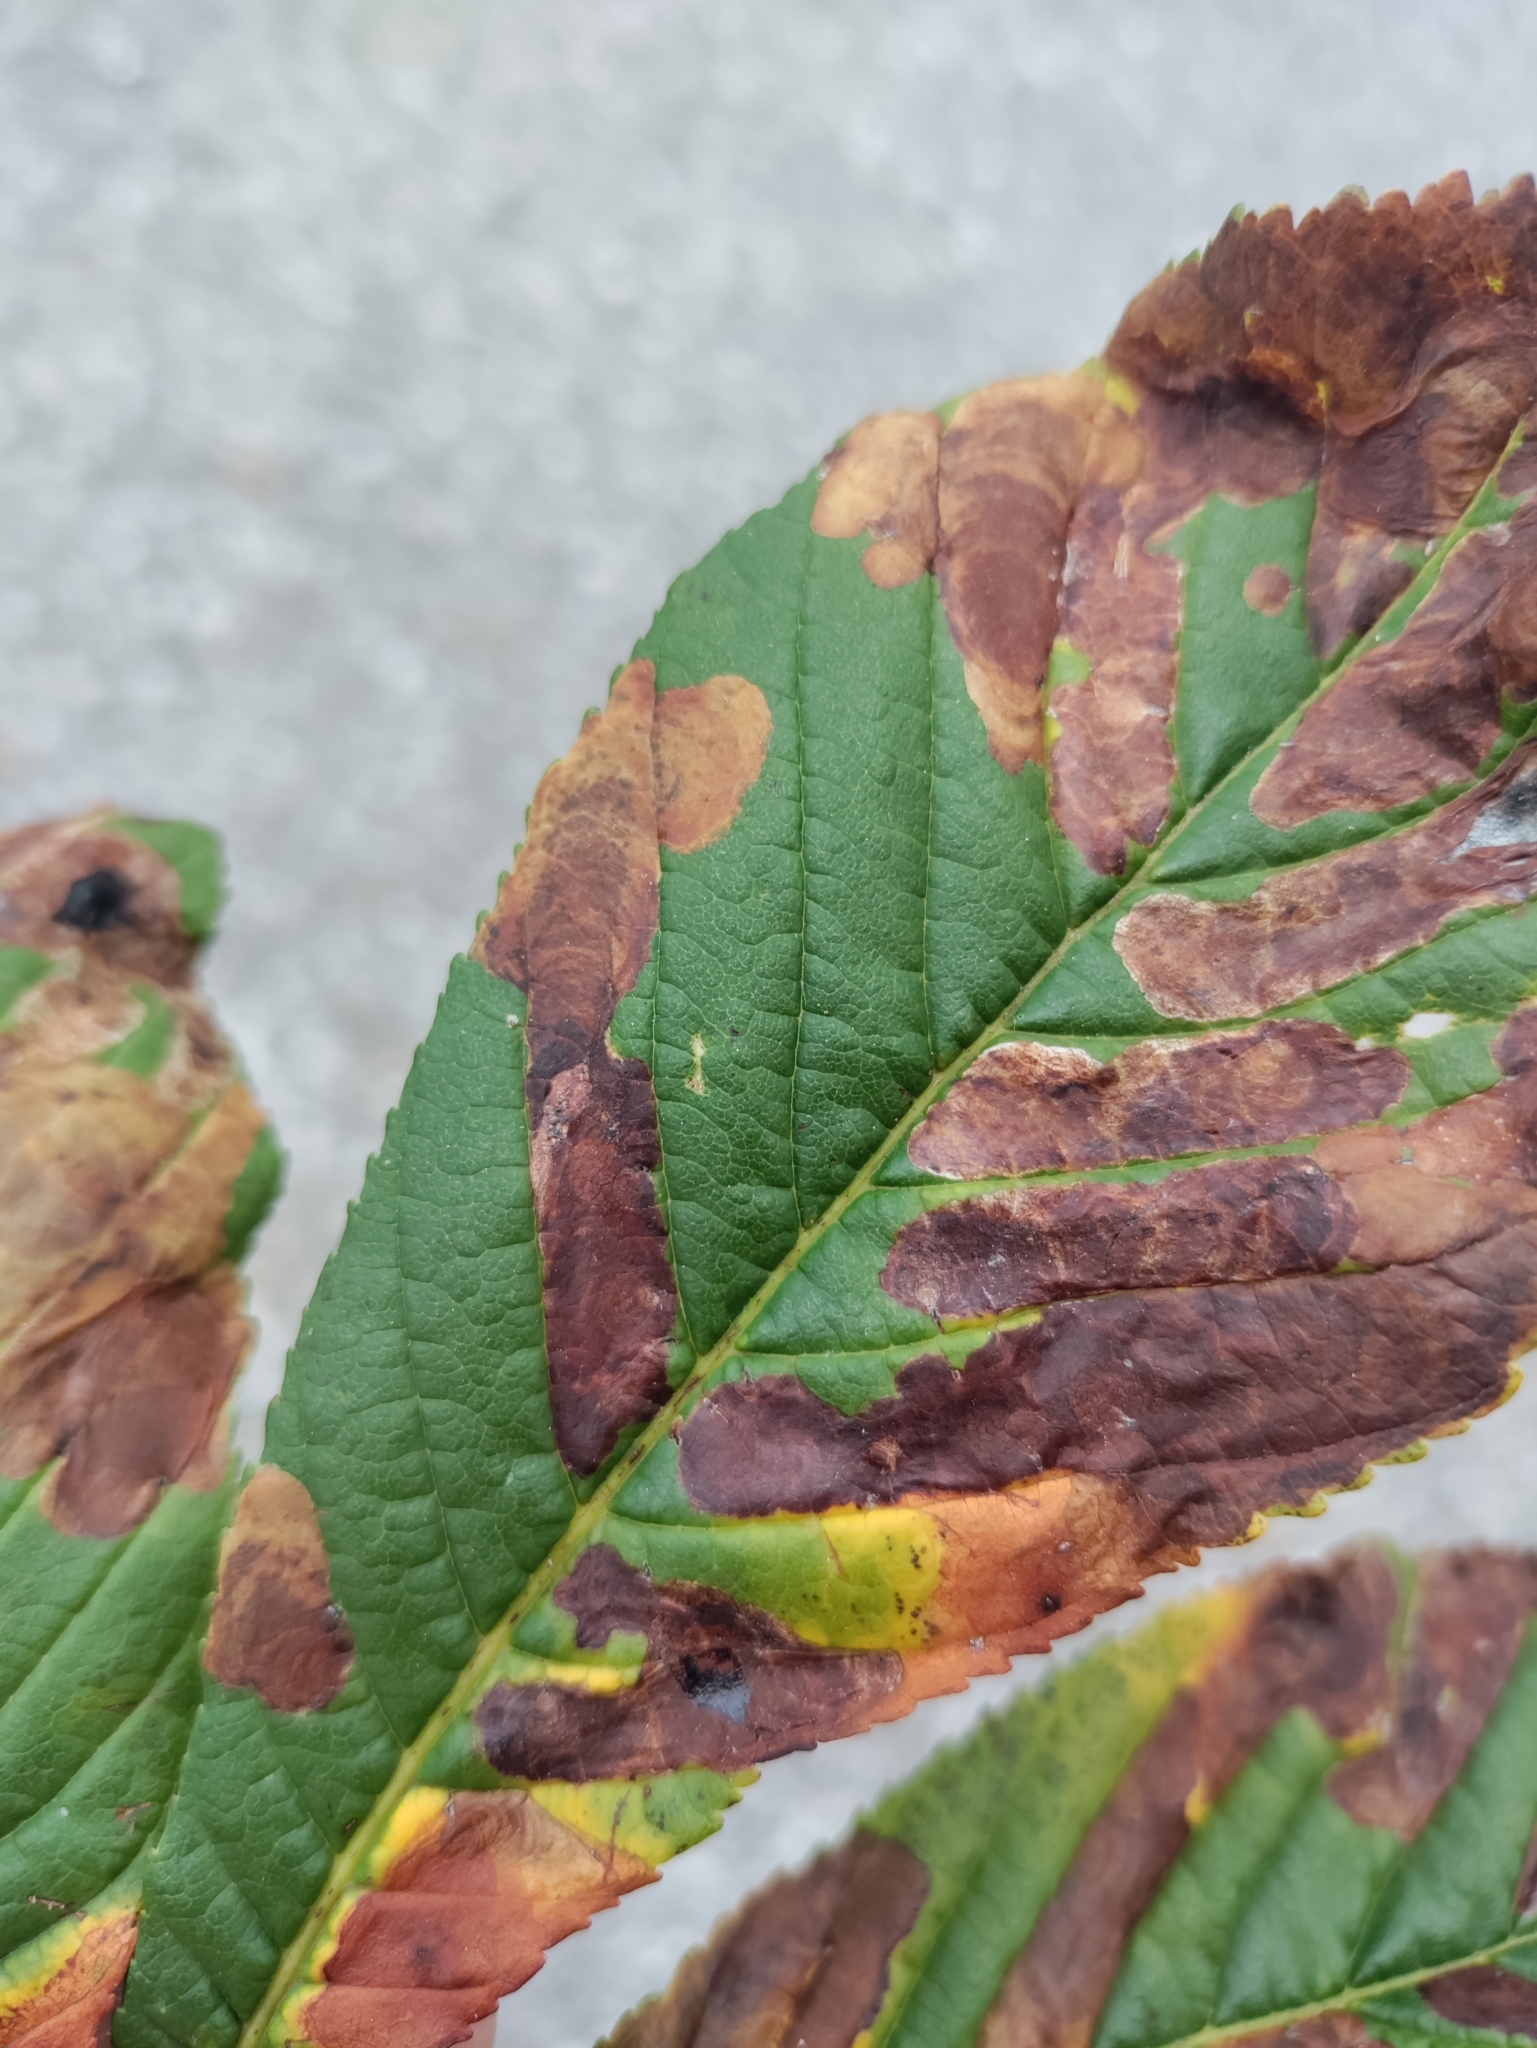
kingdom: Animalia
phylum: Arthropoda
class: Insecta
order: Lepidoptera
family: Gracillariidae
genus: Cameraria
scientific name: Cameraria ohridella
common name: Horse-chestnut leaf-miner
